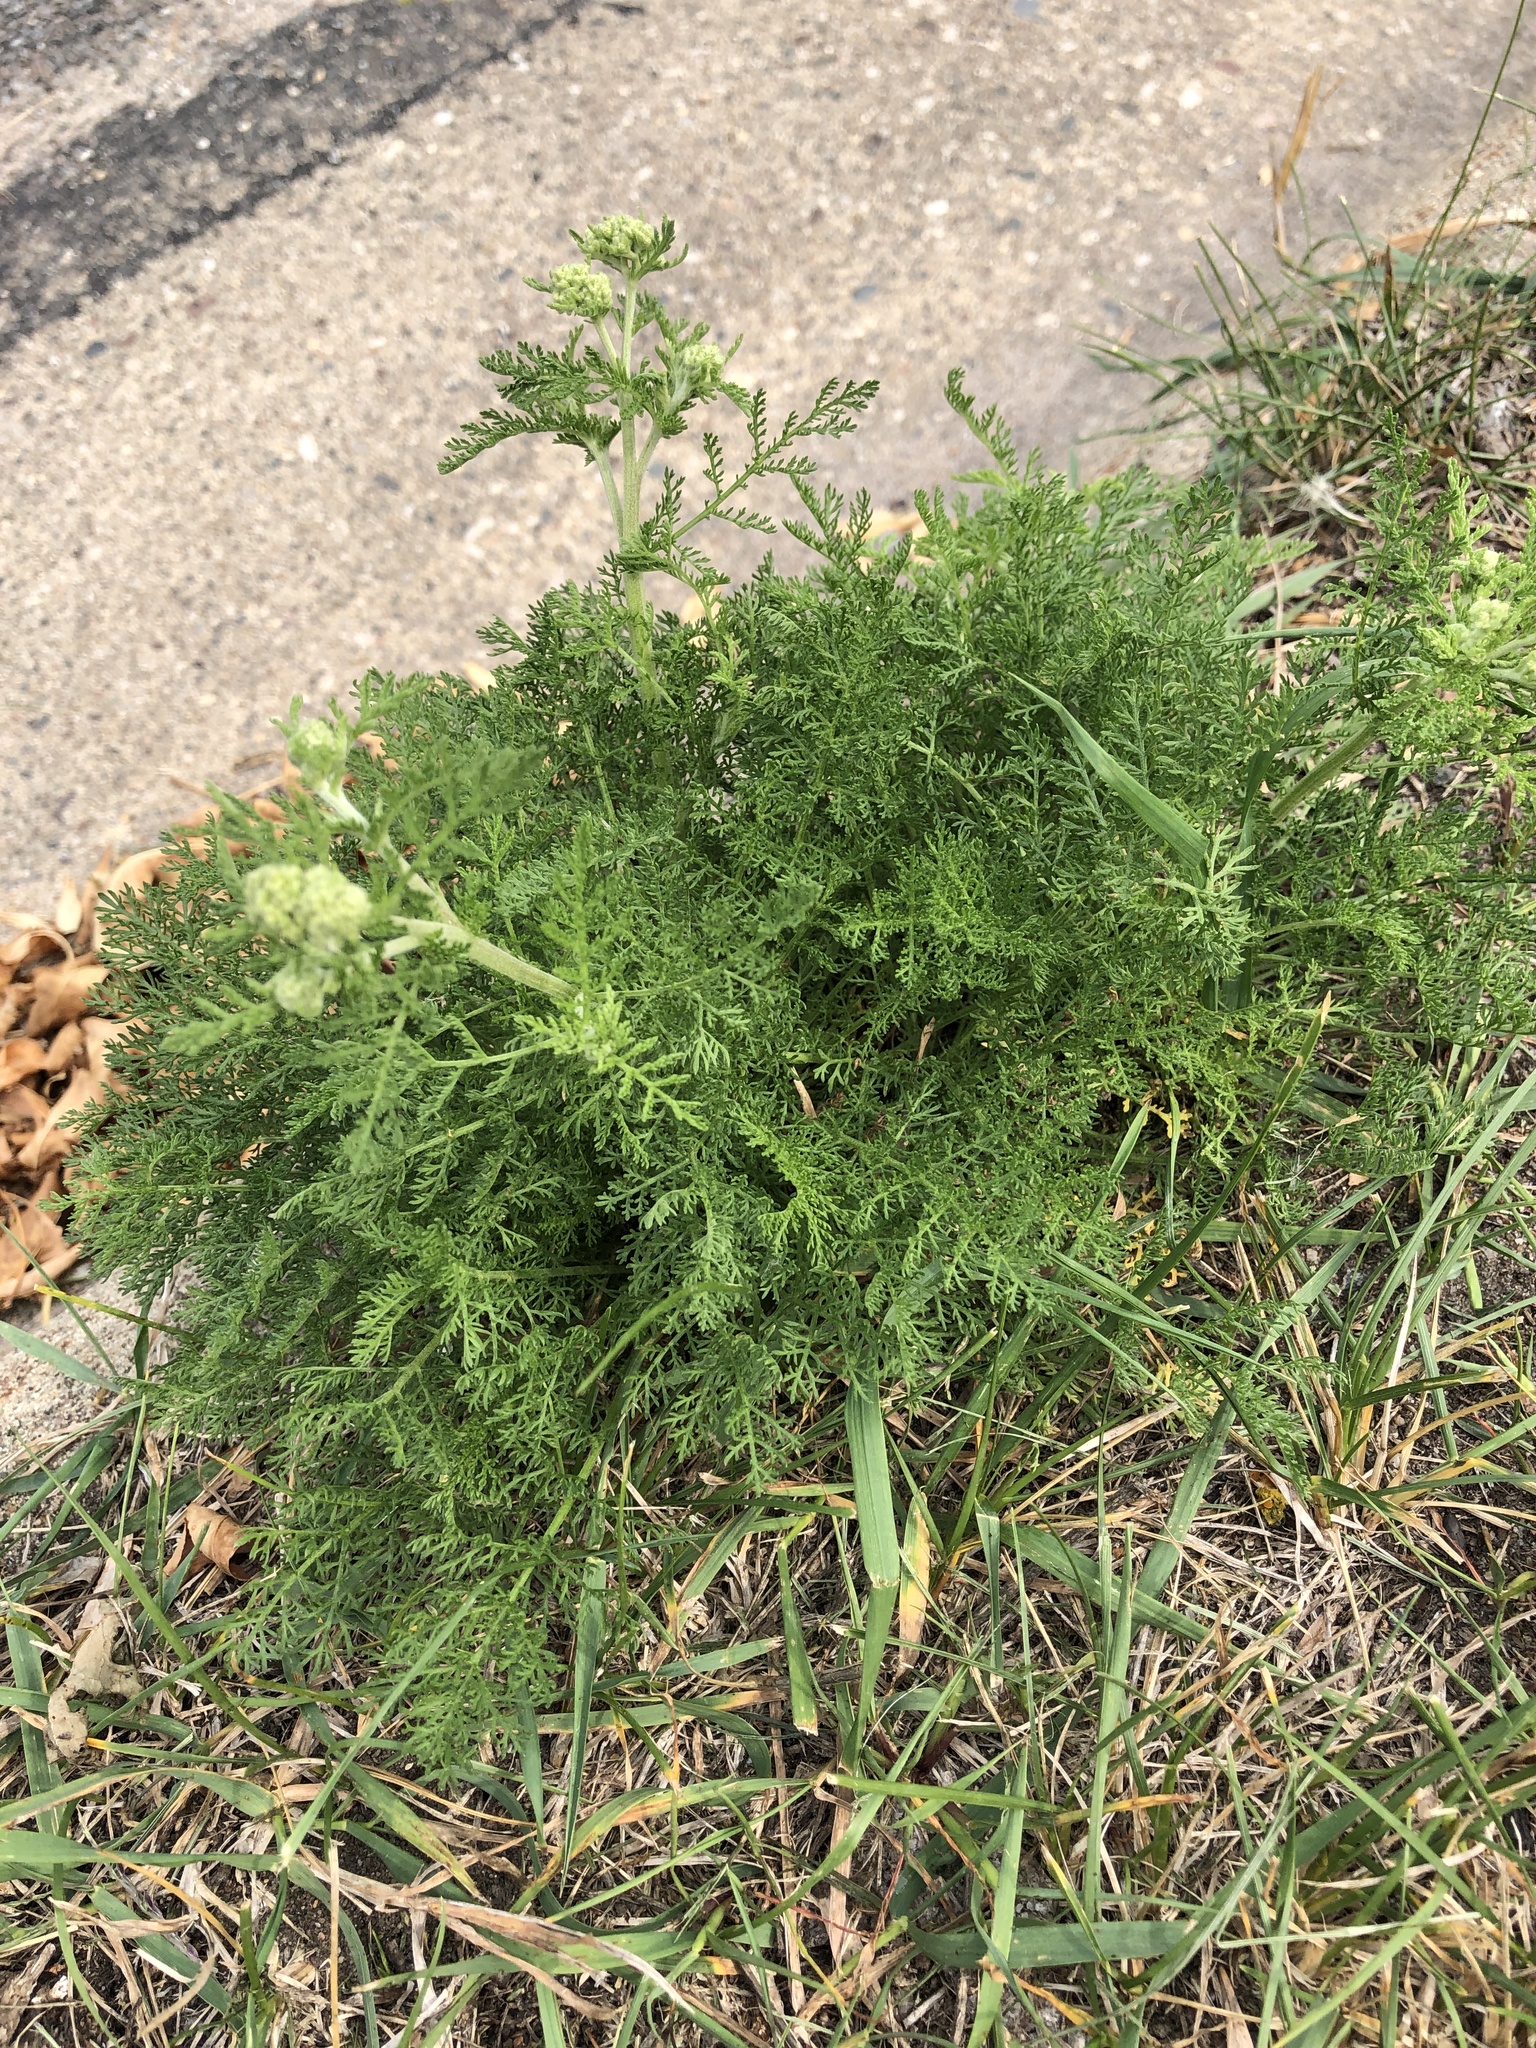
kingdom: Plantae
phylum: Tracheophyta
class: Magnoliopsida
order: Asterales
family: Asteraceae
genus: Achillea
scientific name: Achillea millefolium
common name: Yarrow
